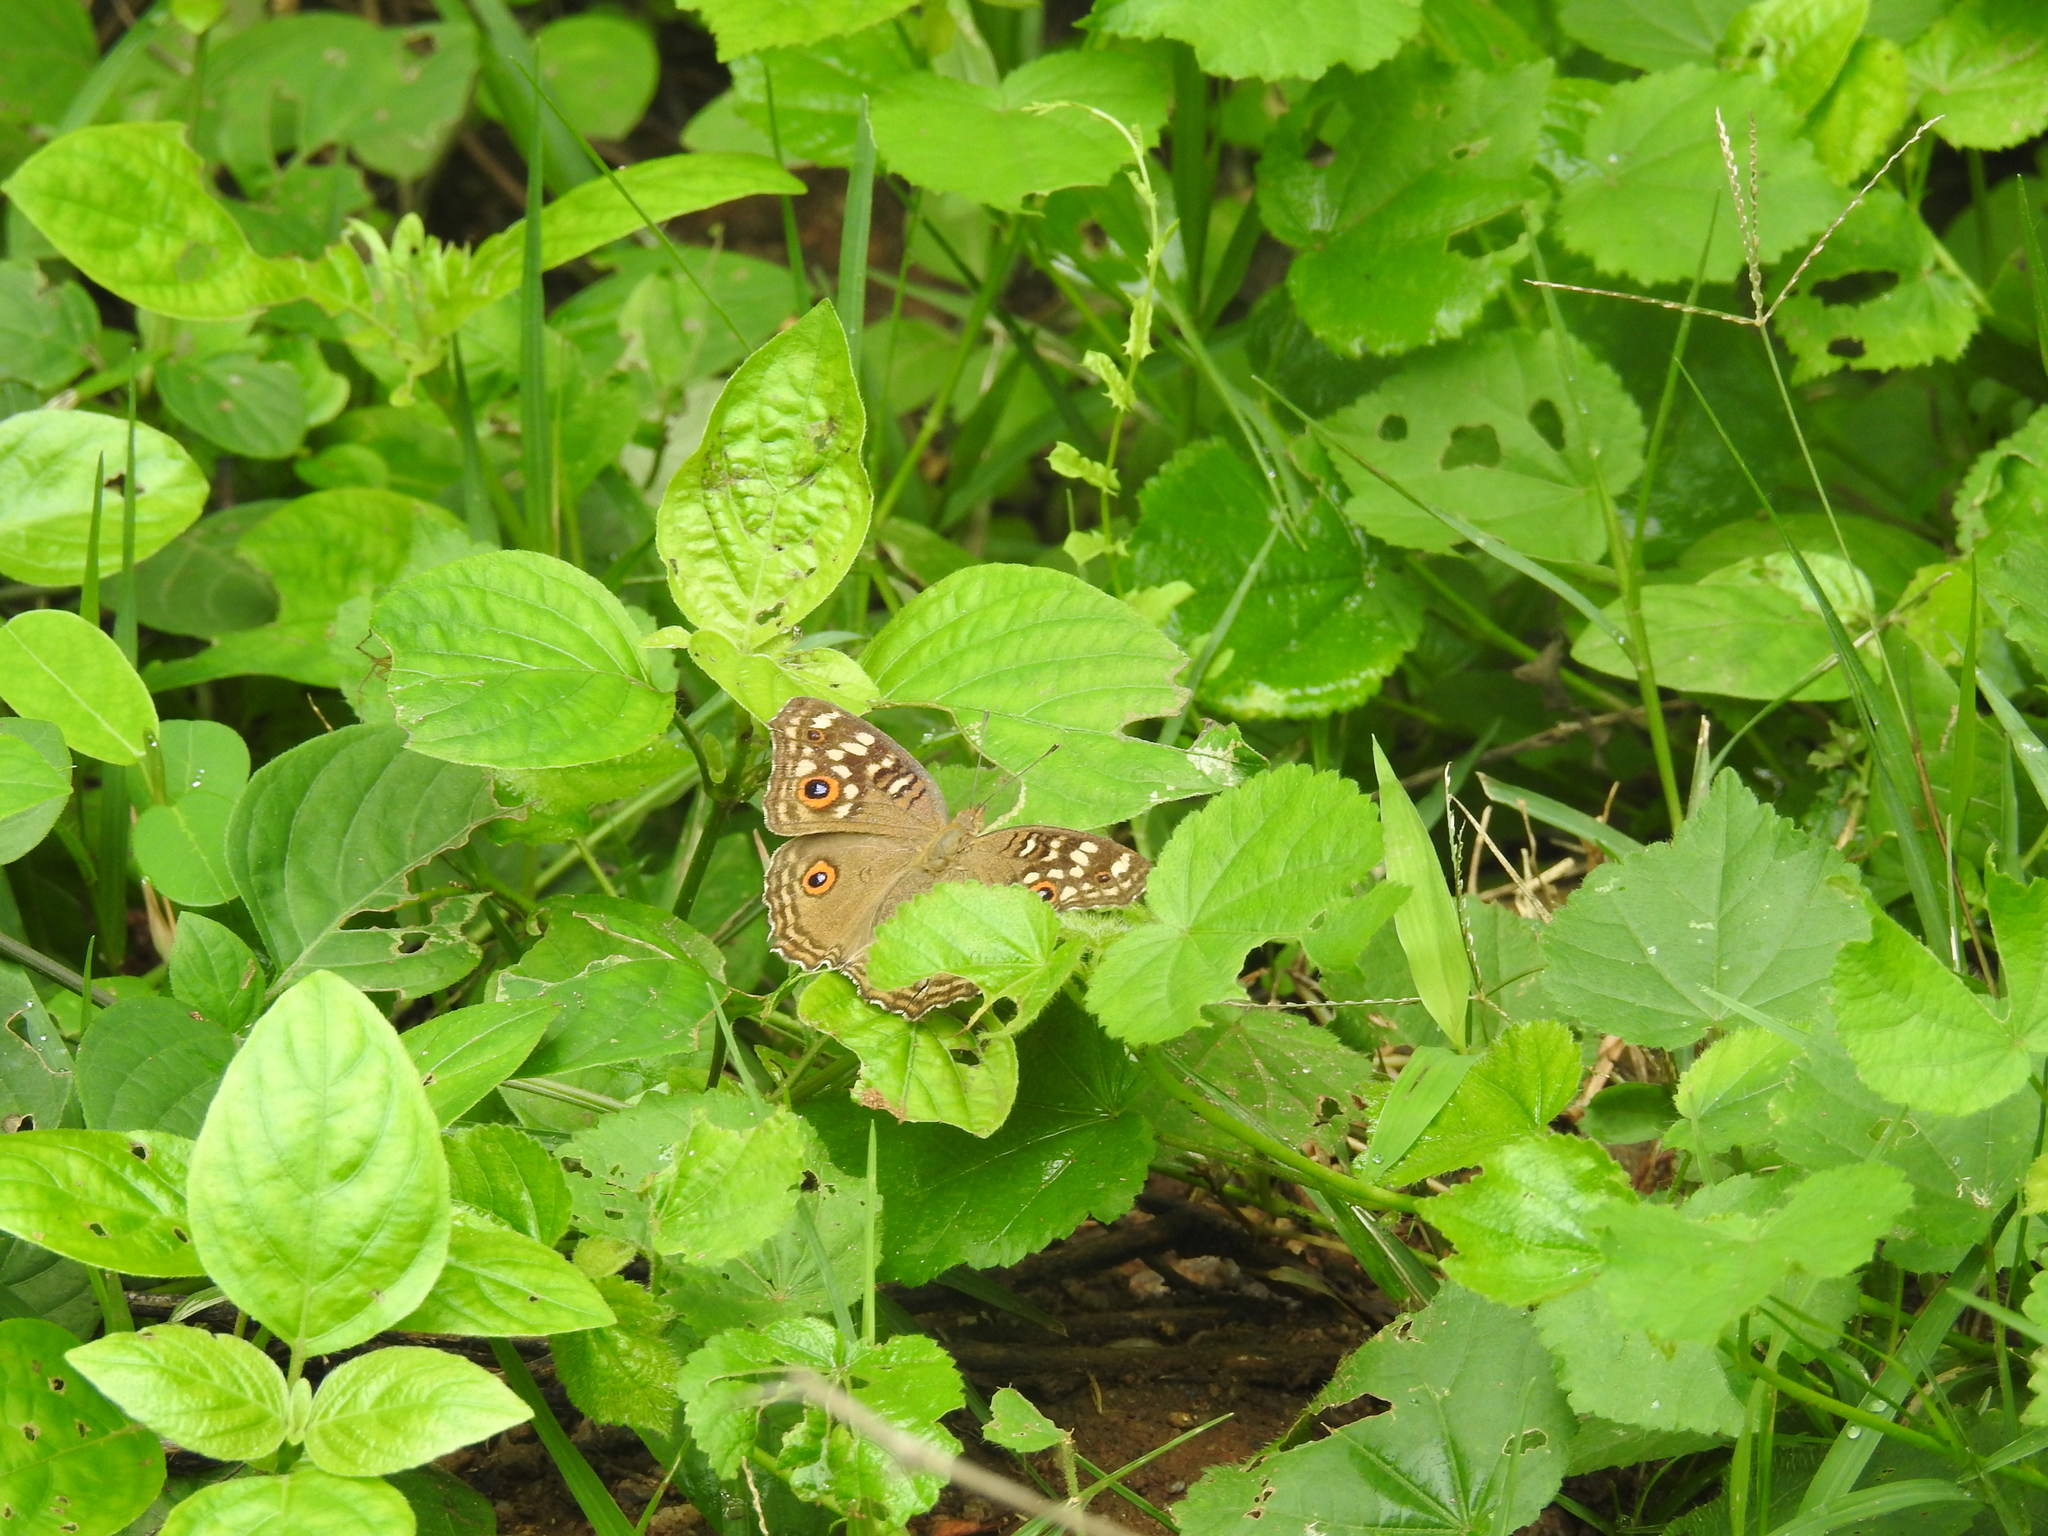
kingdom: Animalia
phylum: Arthropoda
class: Insecta
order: Lepidoptera
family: Nymphalidae
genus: Junonia
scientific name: Junonia lemonias
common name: Lemon pansy
